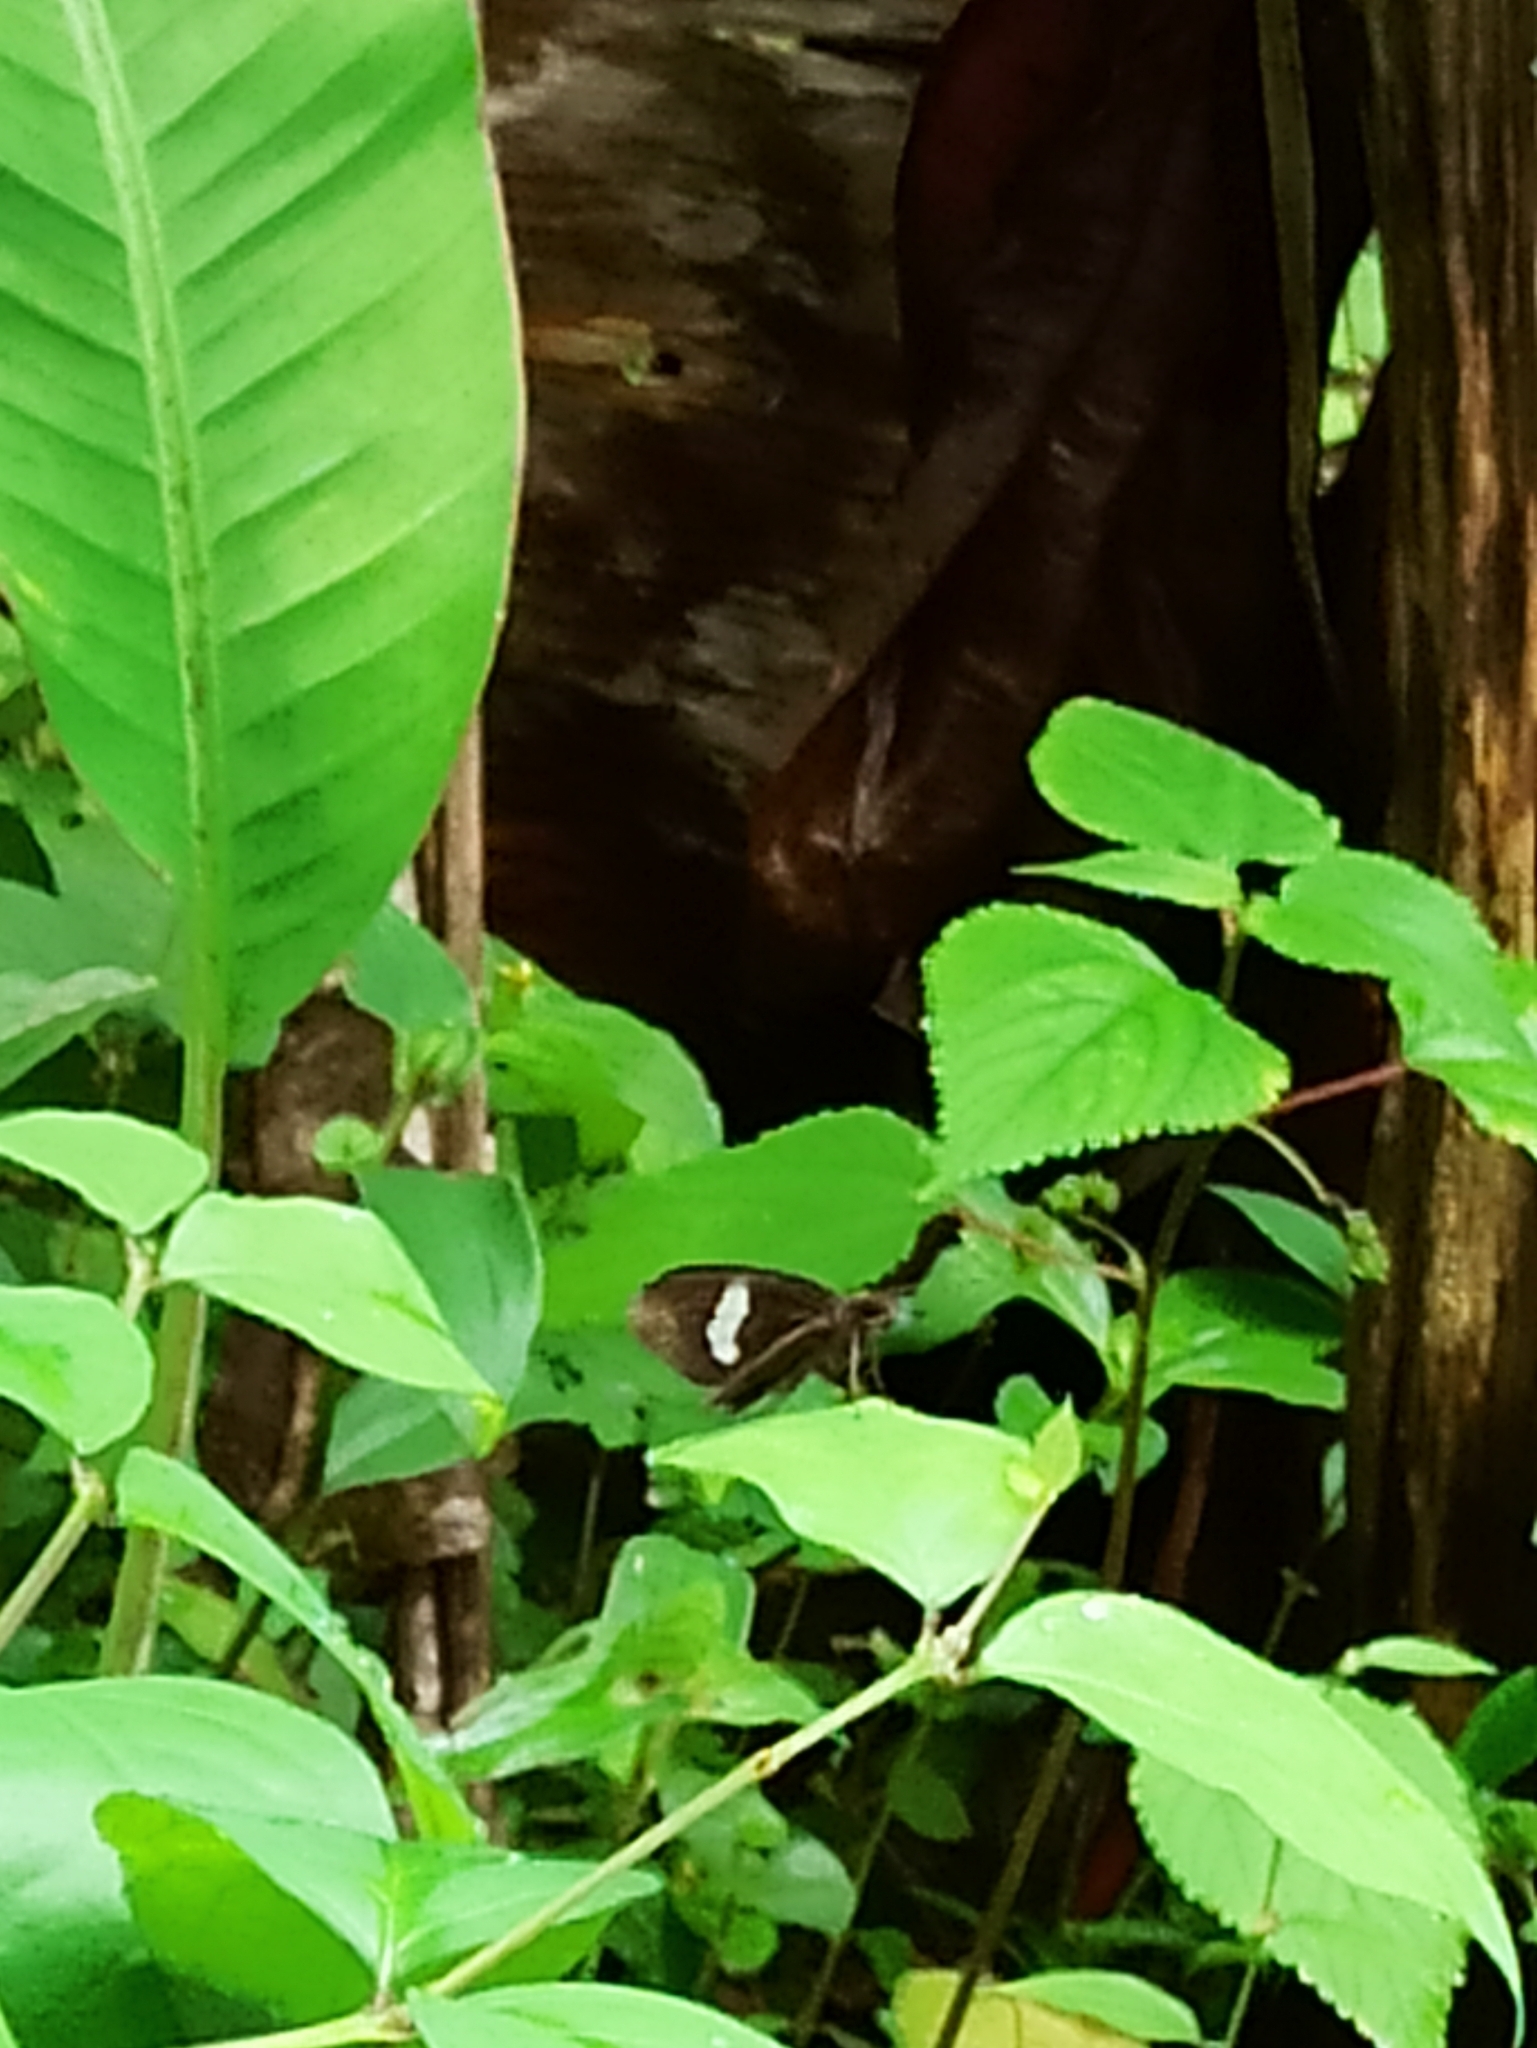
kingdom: Animalia
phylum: Arthropoda
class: Insecta
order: Lepidoptera
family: Hesperiidae
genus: Notocrypta
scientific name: Notocrypta paralysos
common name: Common banded demon
